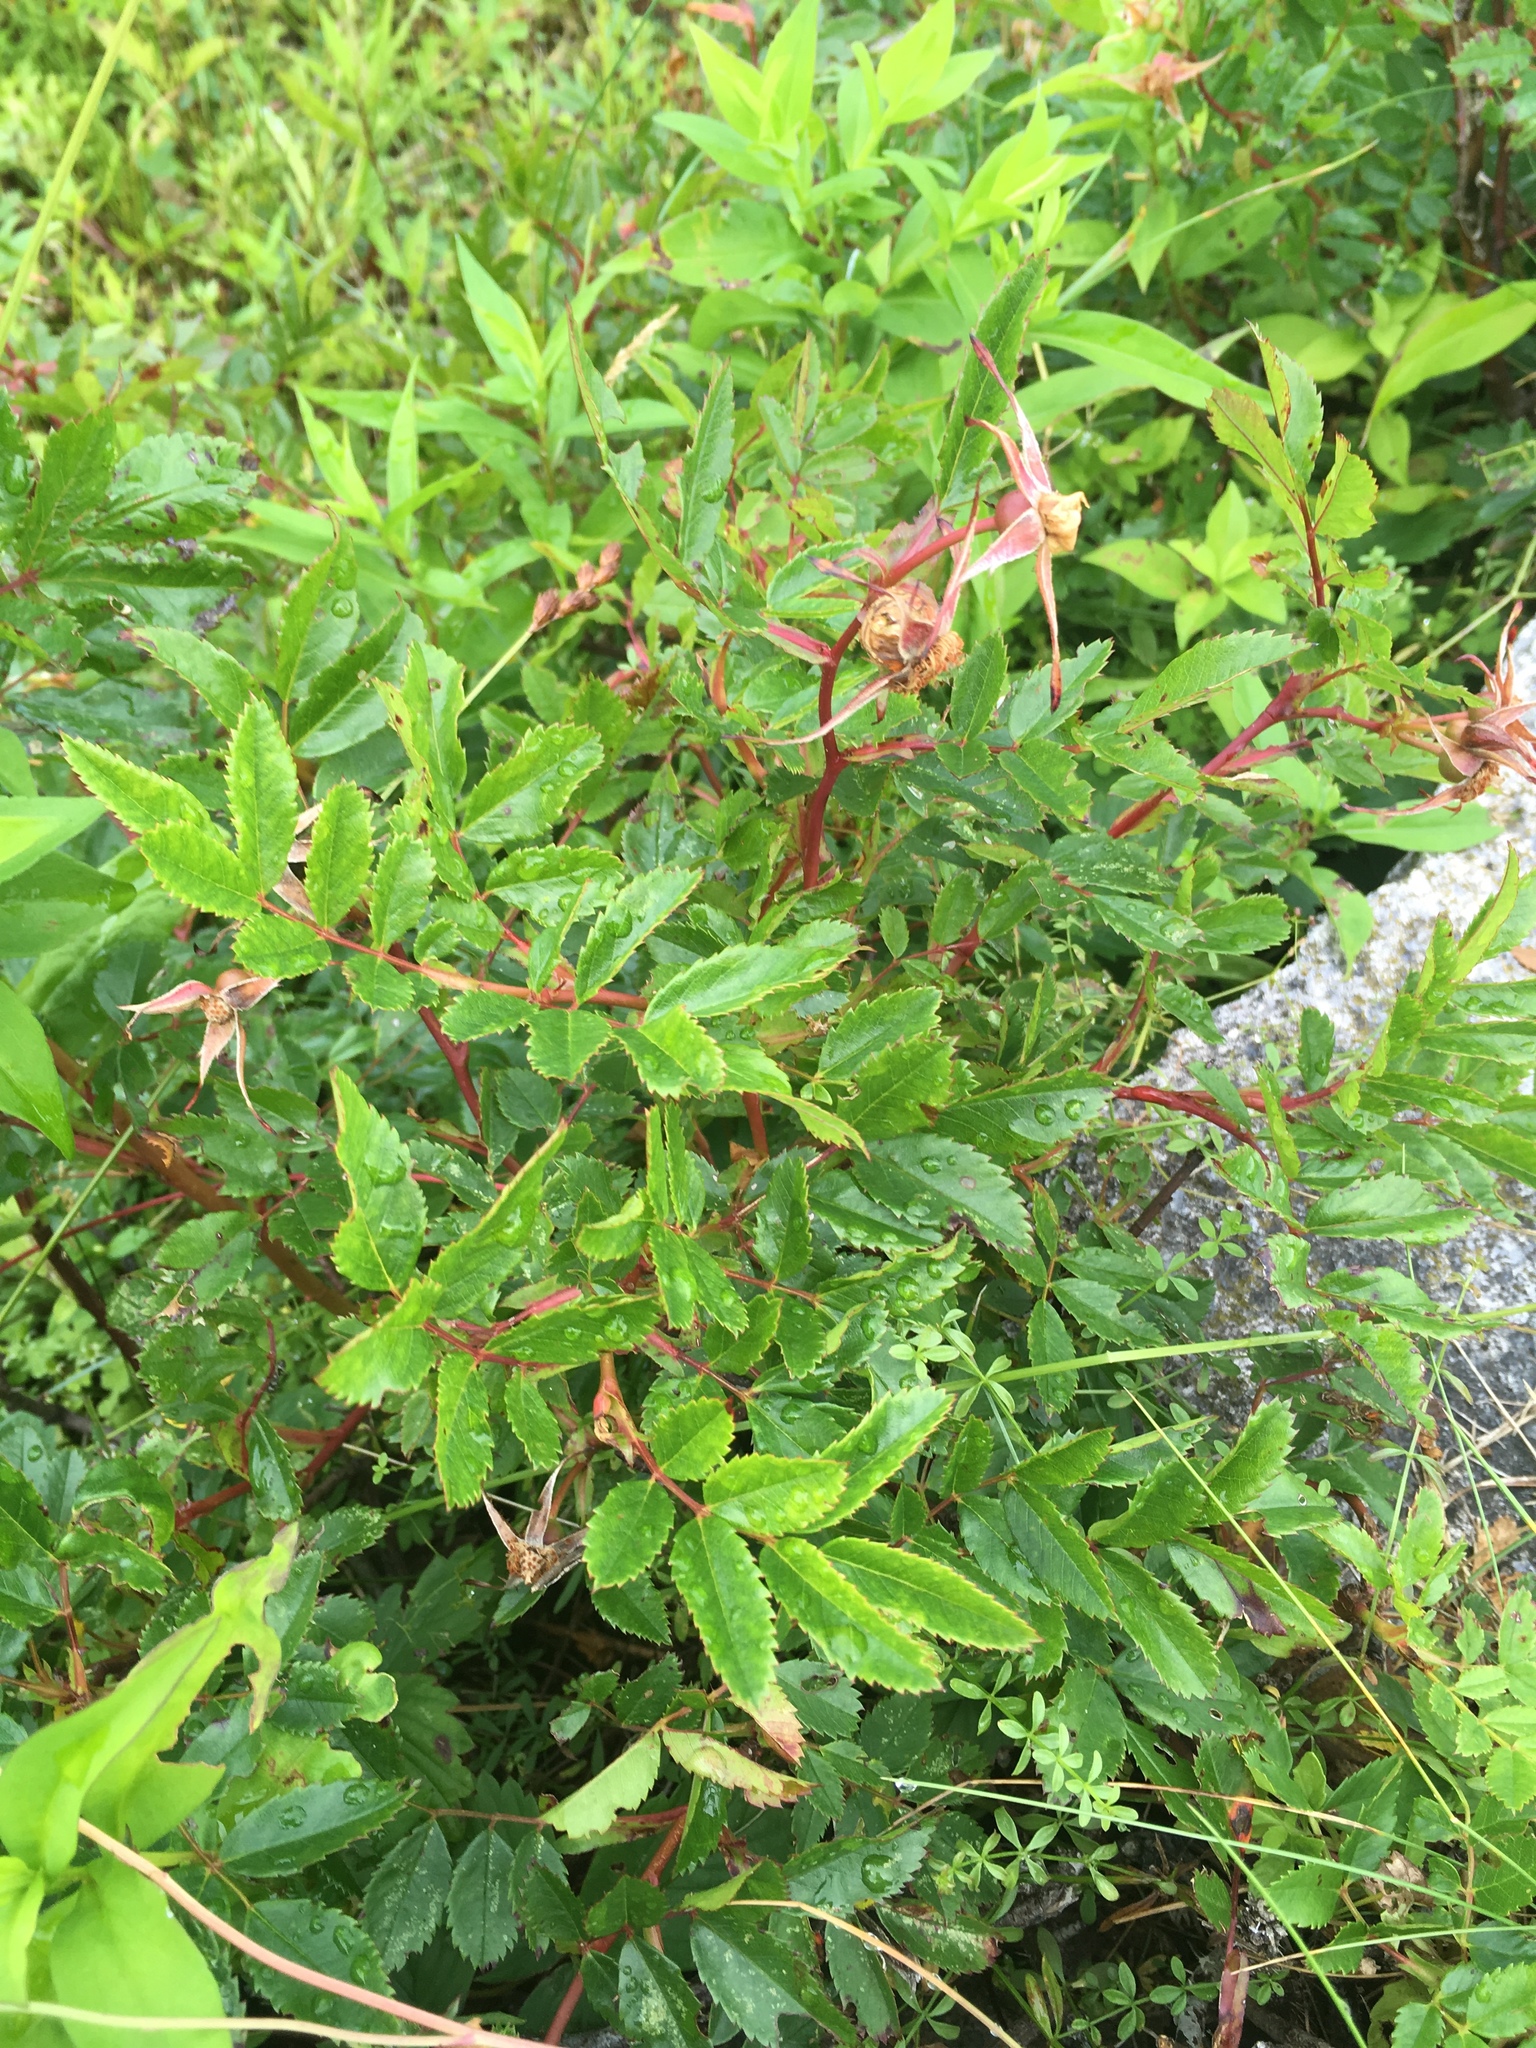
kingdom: Plantae
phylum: Tracheophyta
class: Magnoliopsida
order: Rosales
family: Rosaceae
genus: Rosa
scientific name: Rosa virginiana
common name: Virginian rose
